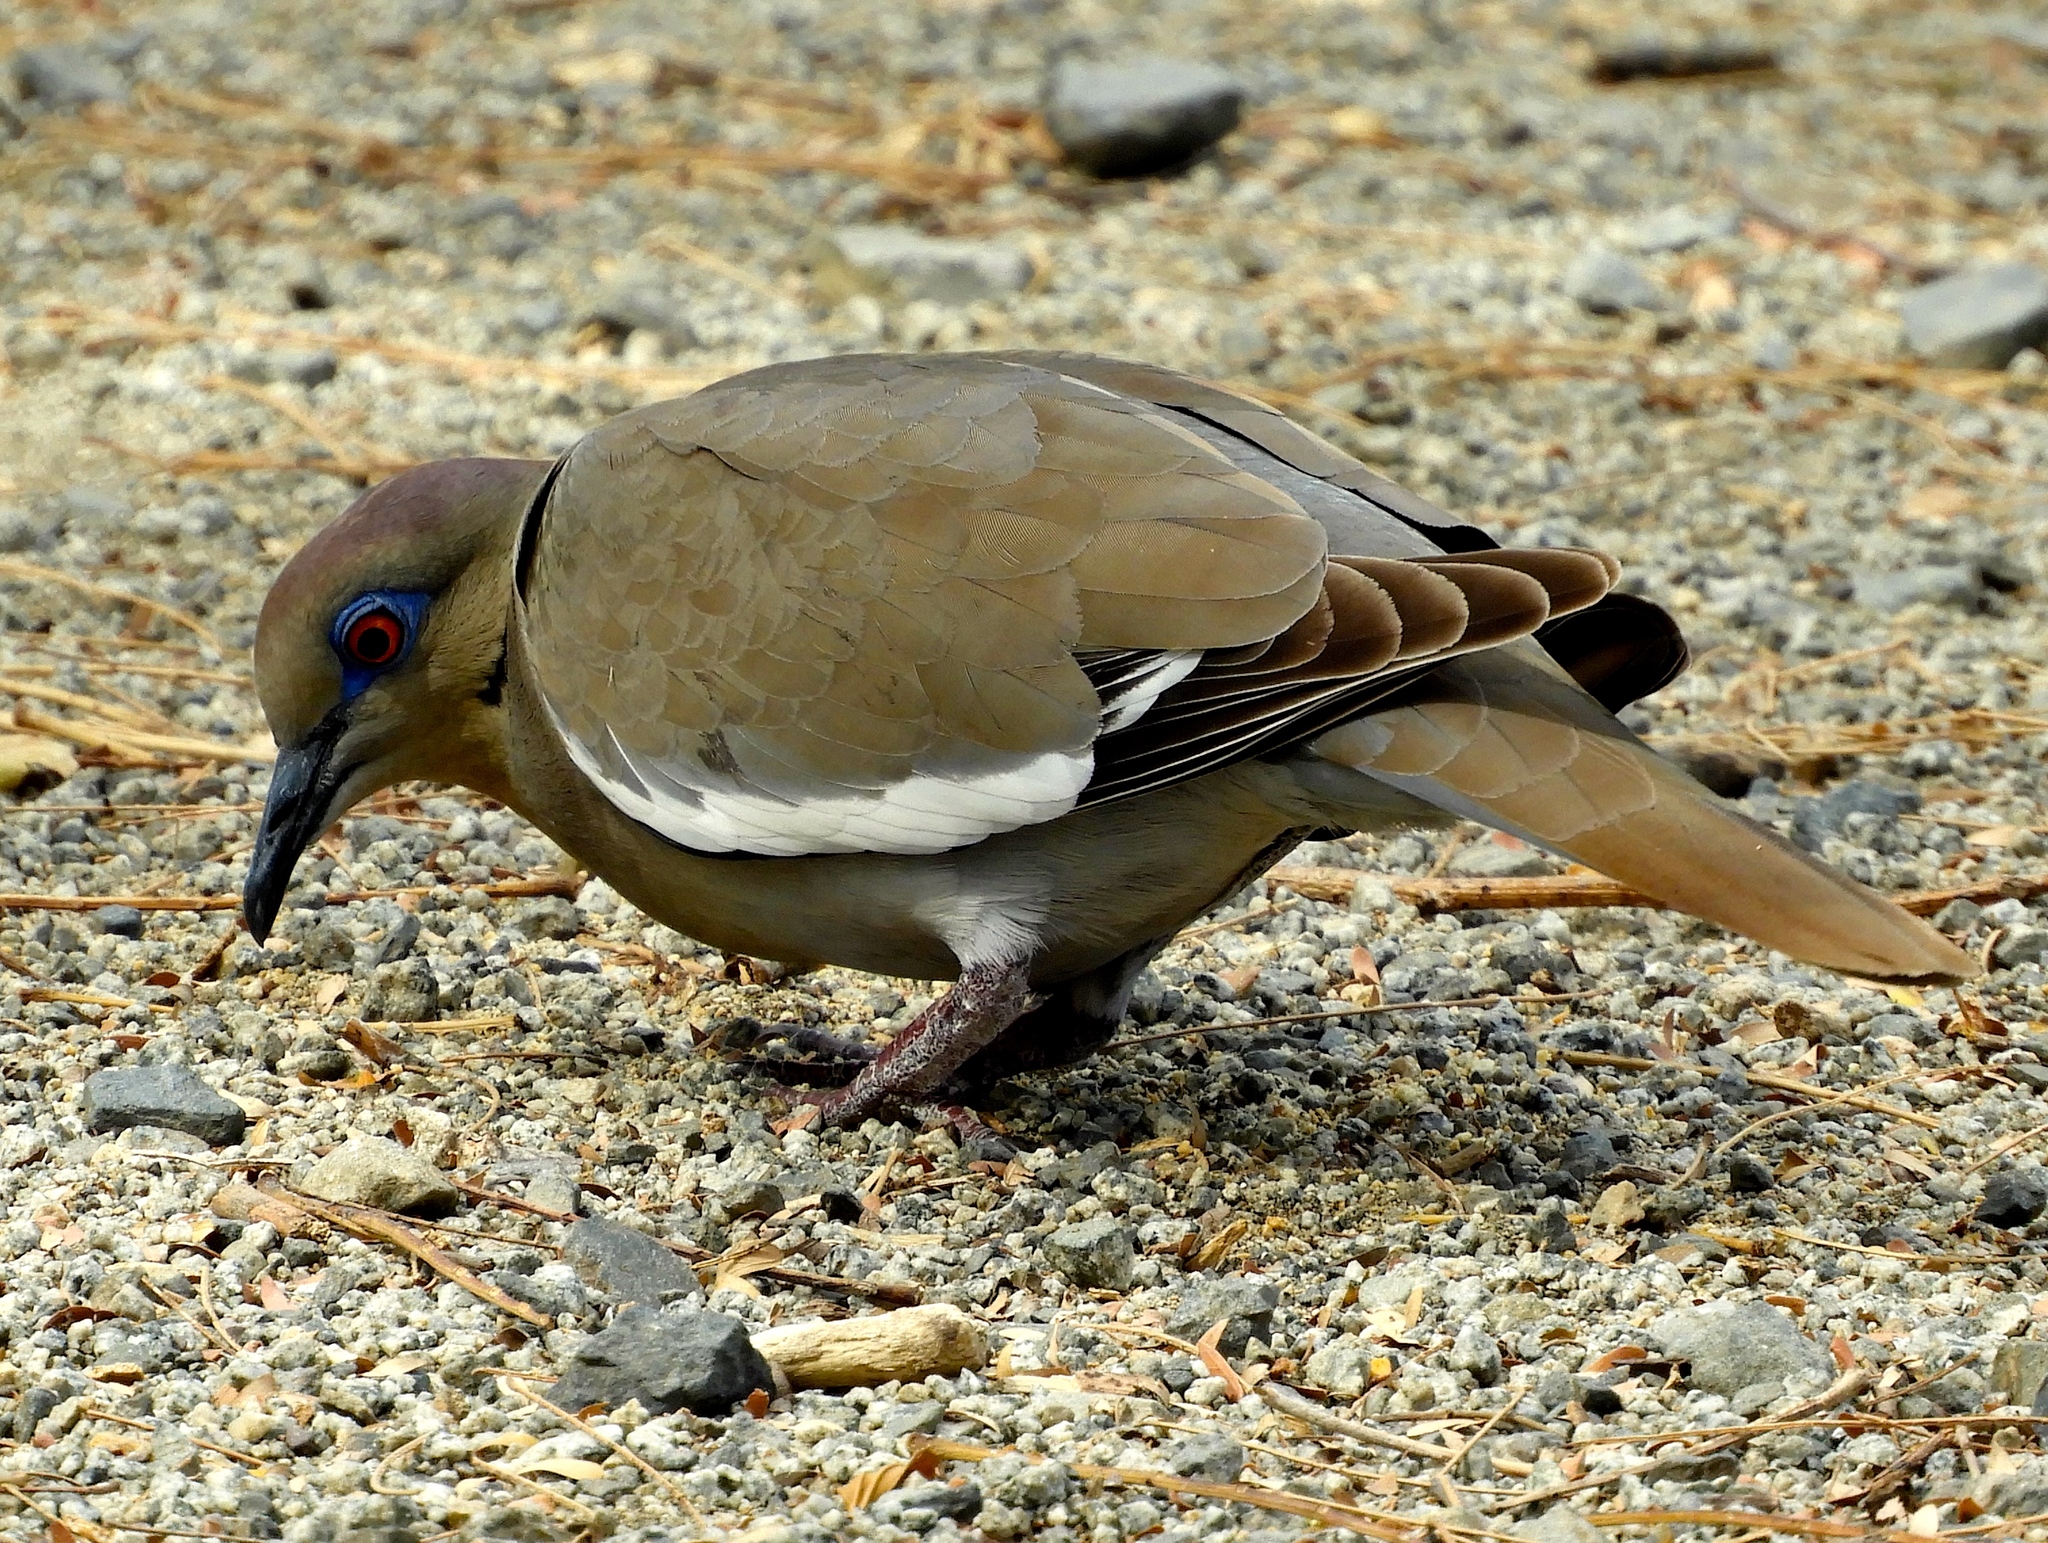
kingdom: Animalia
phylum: Chordata
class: Aves
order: Columbiformes
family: Columbidae
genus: Zenaida
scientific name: Zenaida asiatica
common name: White-winged dove
